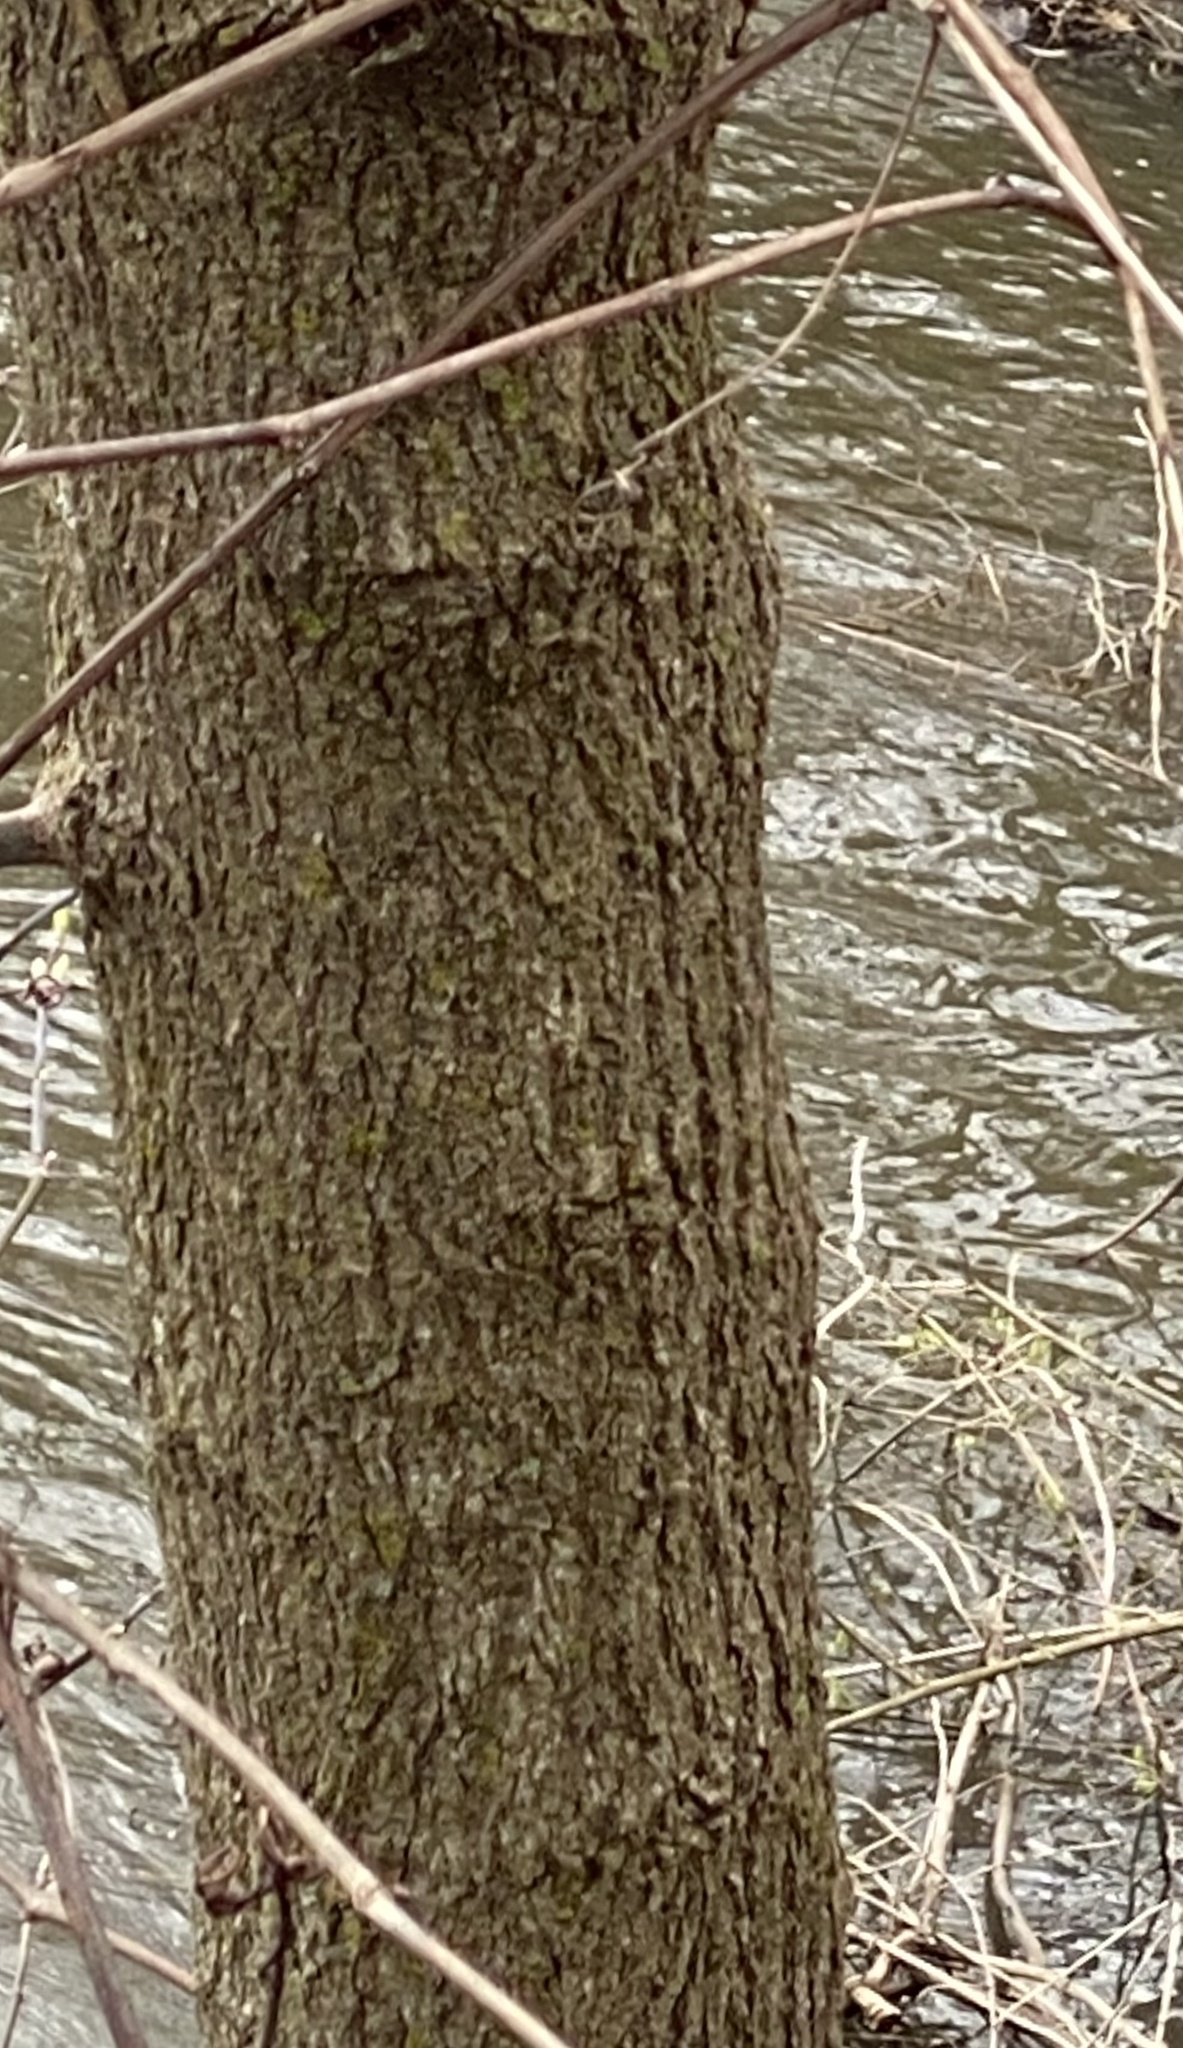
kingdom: Plantae
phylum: Tracheophyta
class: Magnoliopsida
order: Sapindales
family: Sapindaceae
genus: Acer
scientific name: Acer negundo
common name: Ashleaf maple
